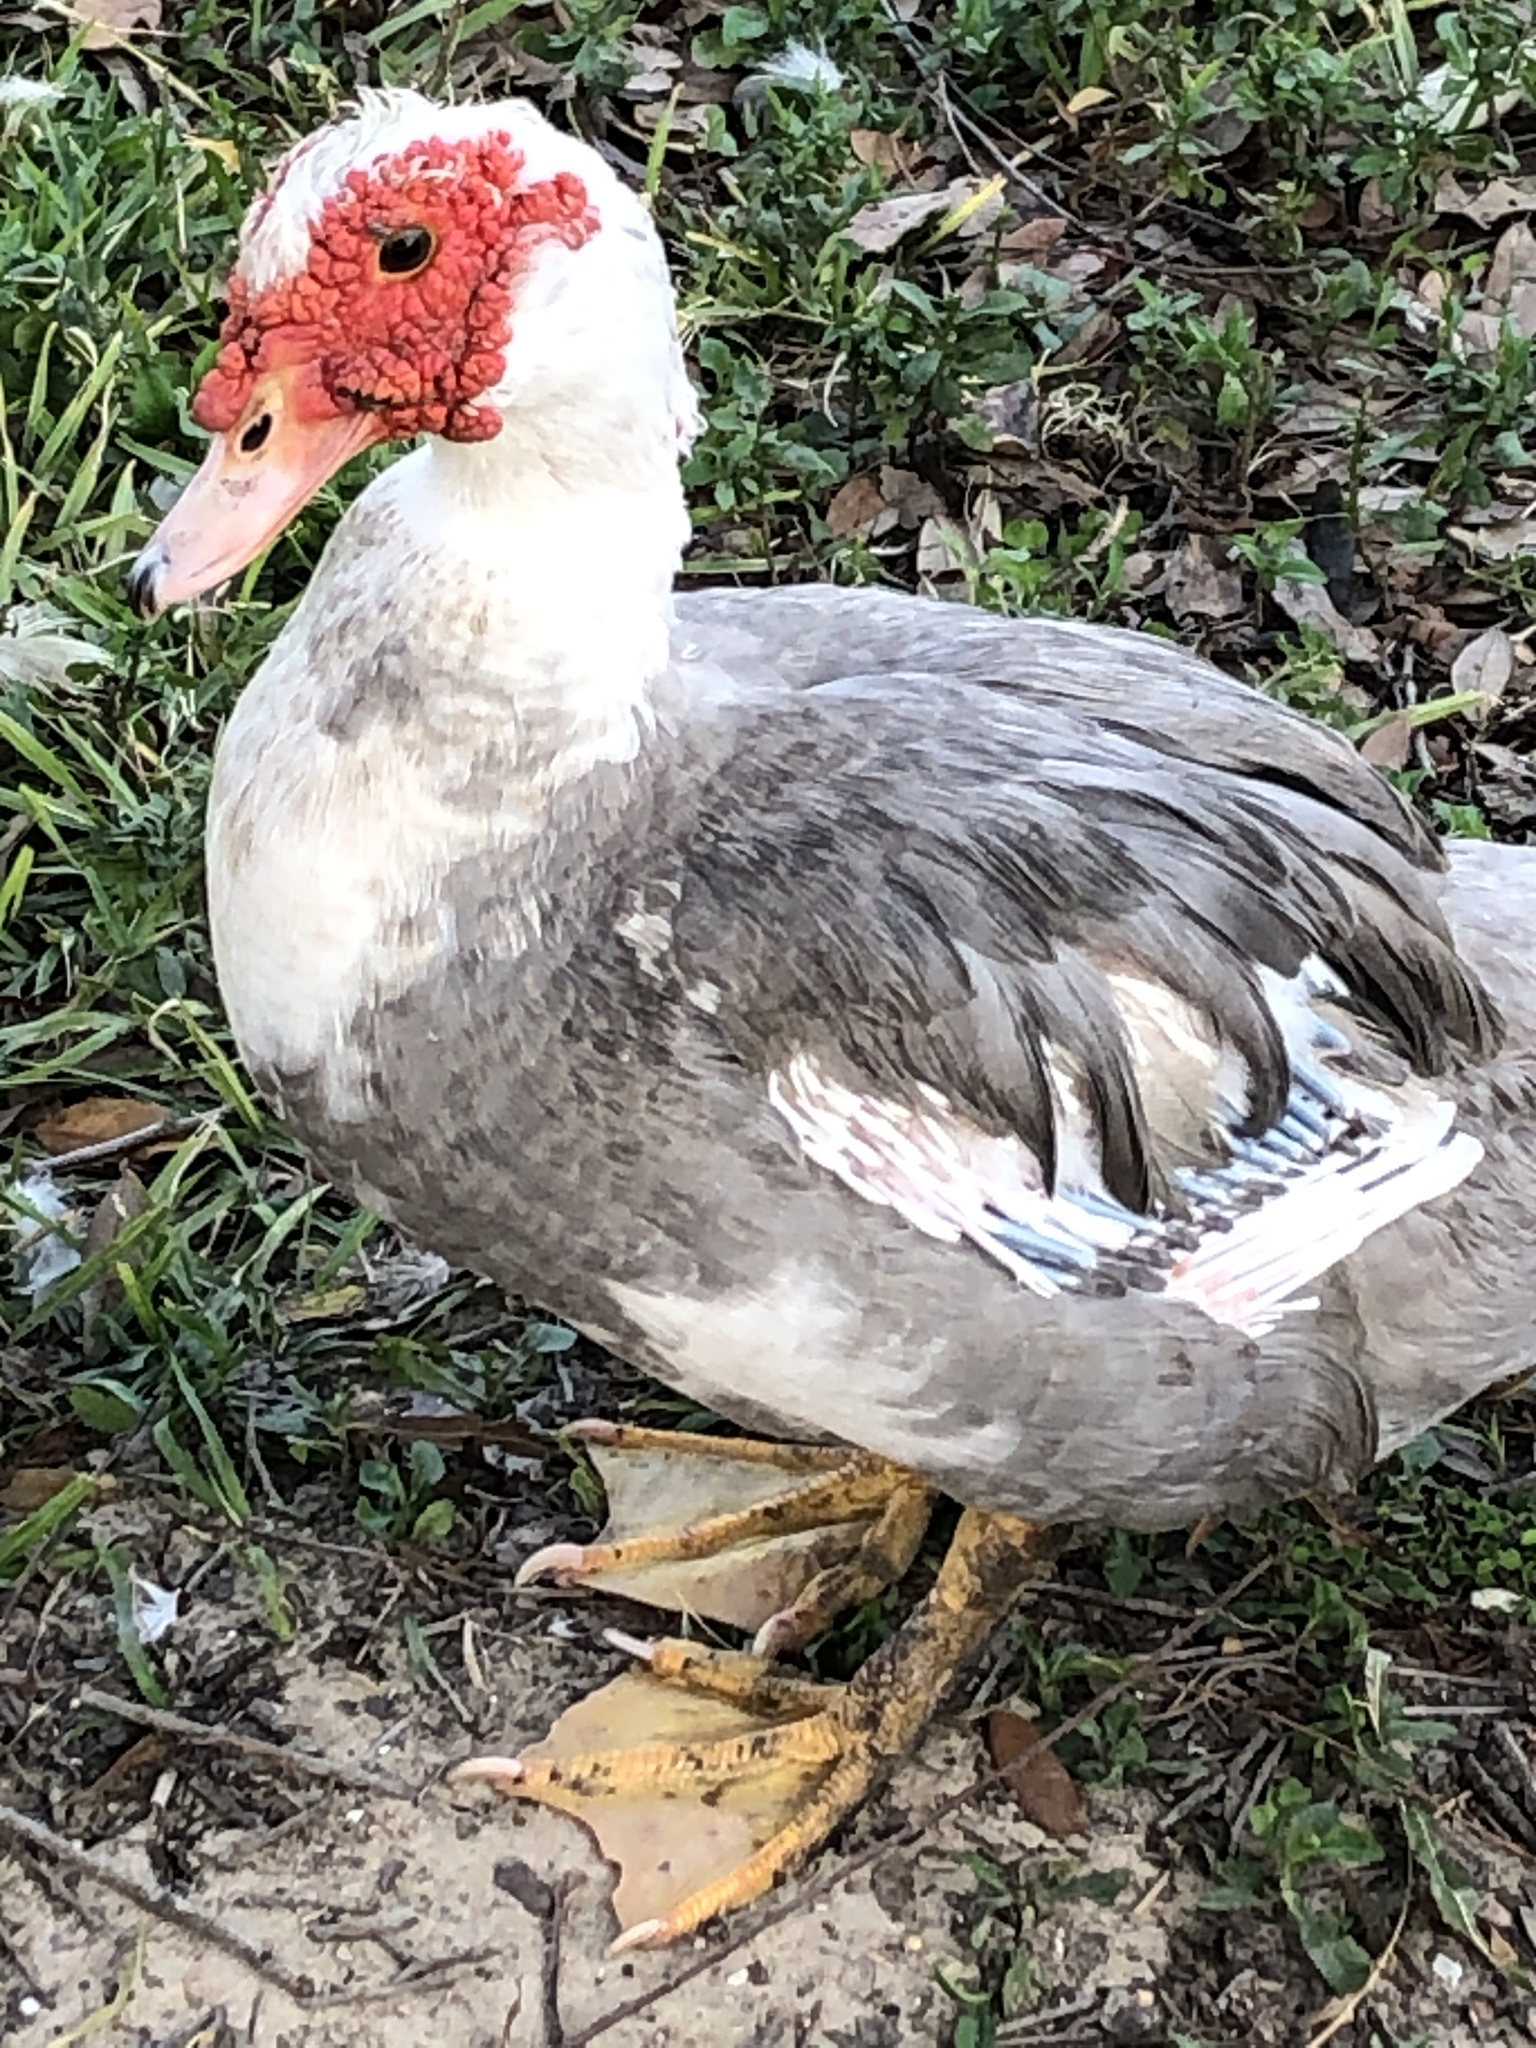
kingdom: Animalia
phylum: Chordata
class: Aves
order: Anseriformes
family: Anatidae
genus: Cairina
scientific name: Cairina moschata
